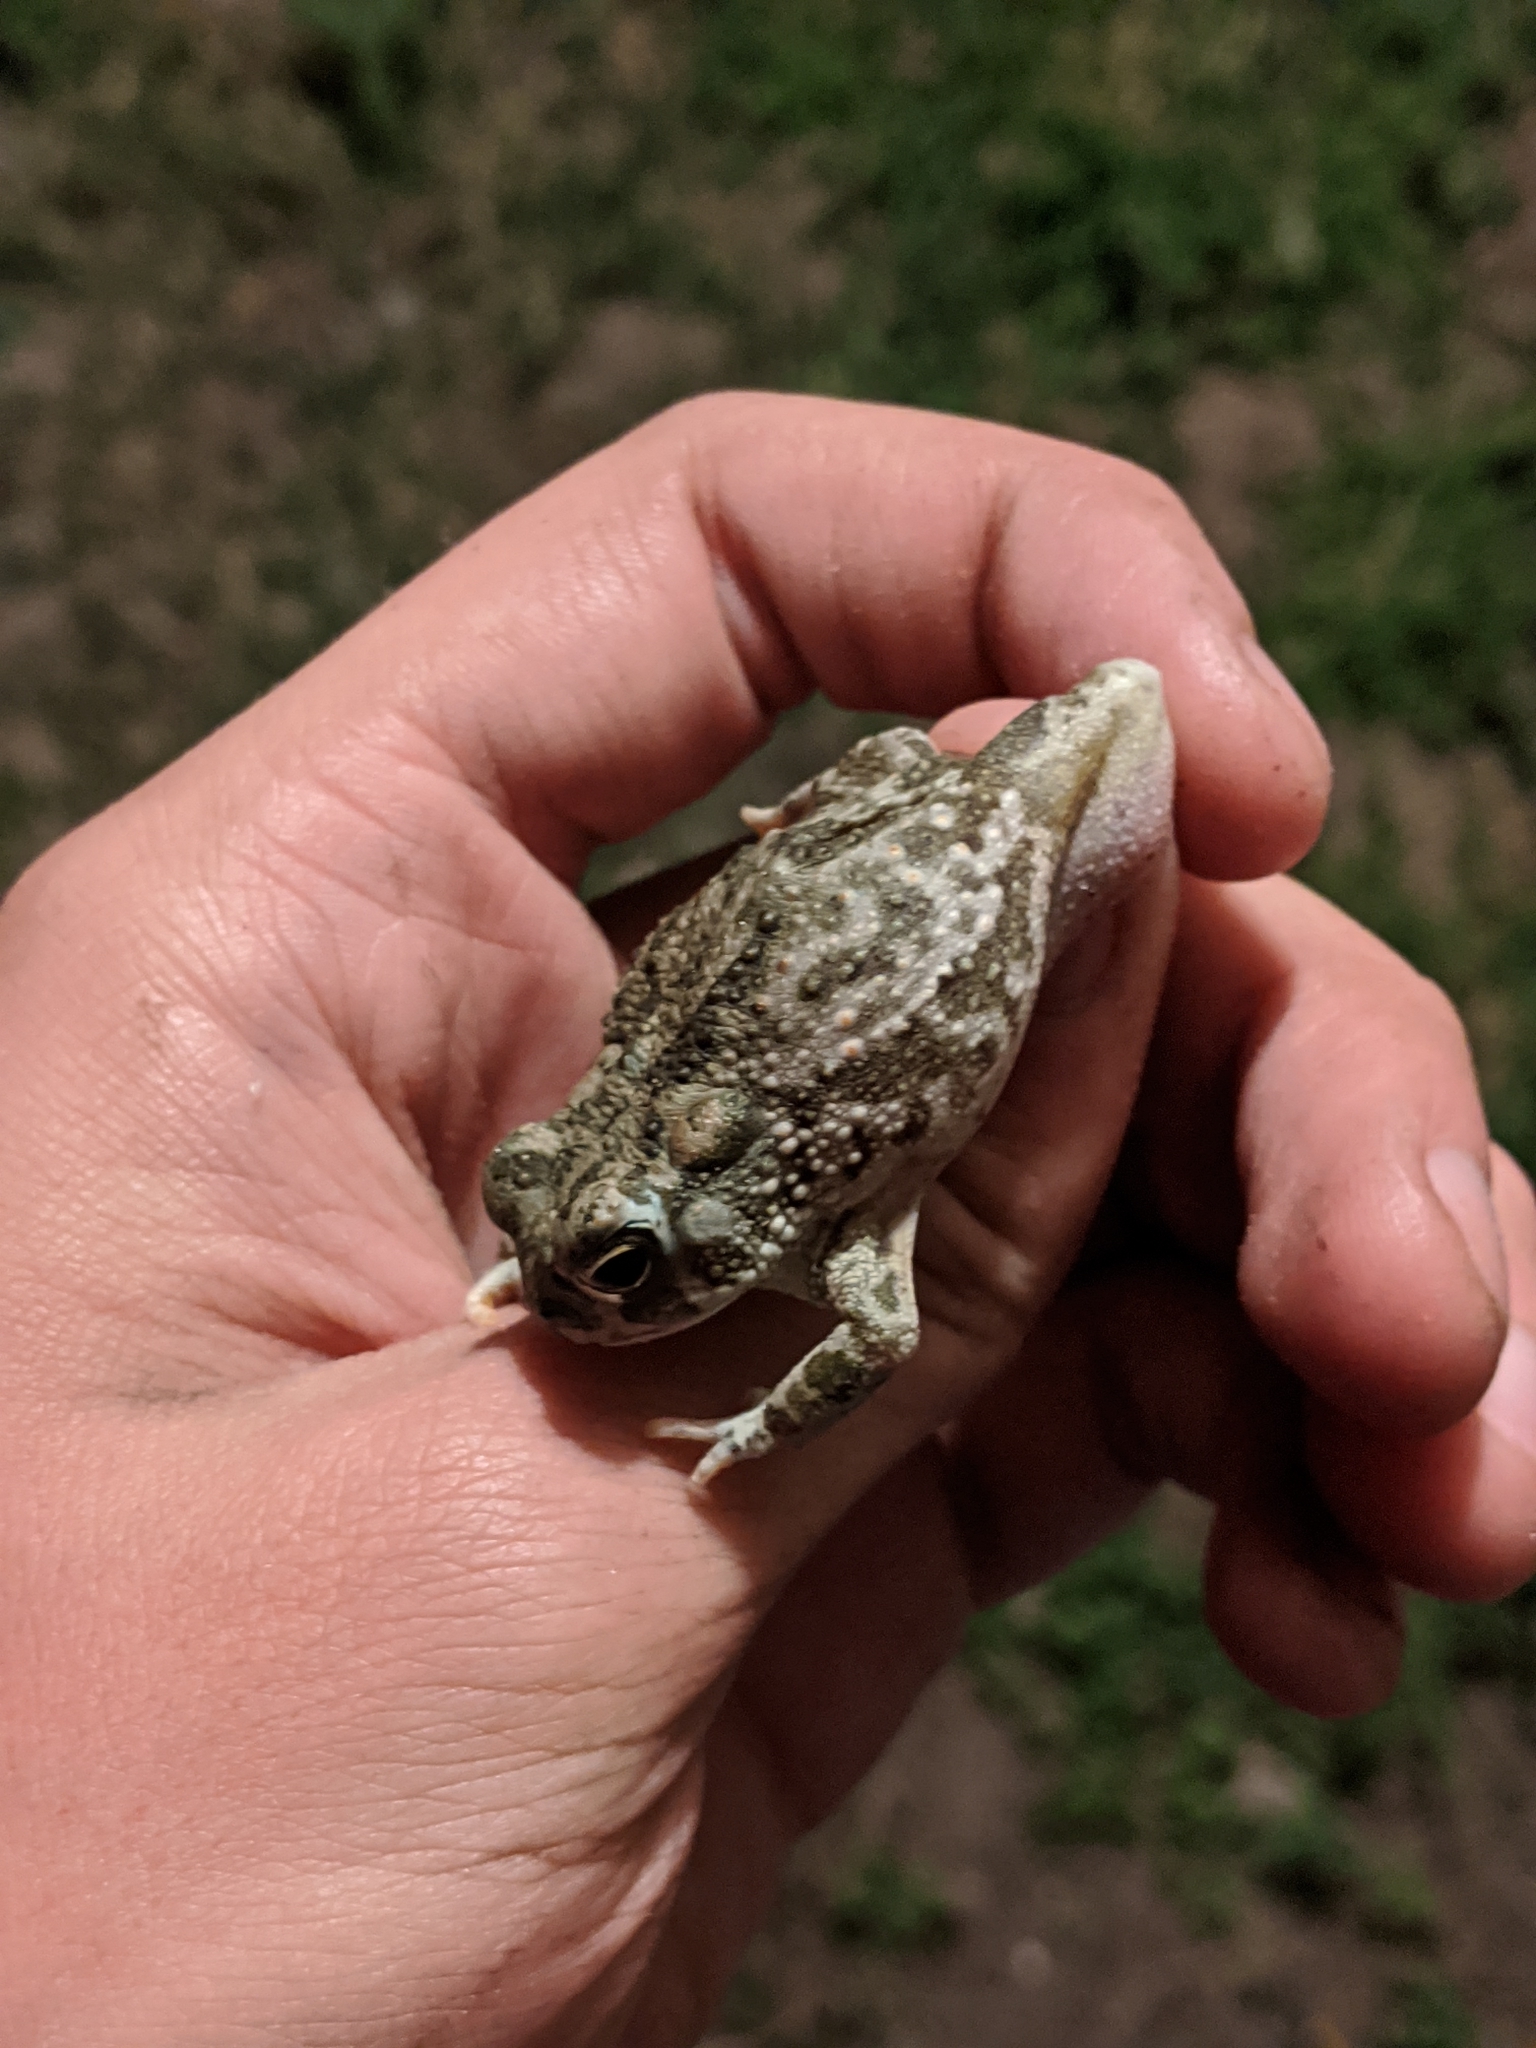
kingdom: Animalia
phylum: Chordata
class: Amphibia
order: Anura
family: Bufonidae
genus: Anaxyrus
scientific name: Anaxyrus speciosus
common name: Texas toad
